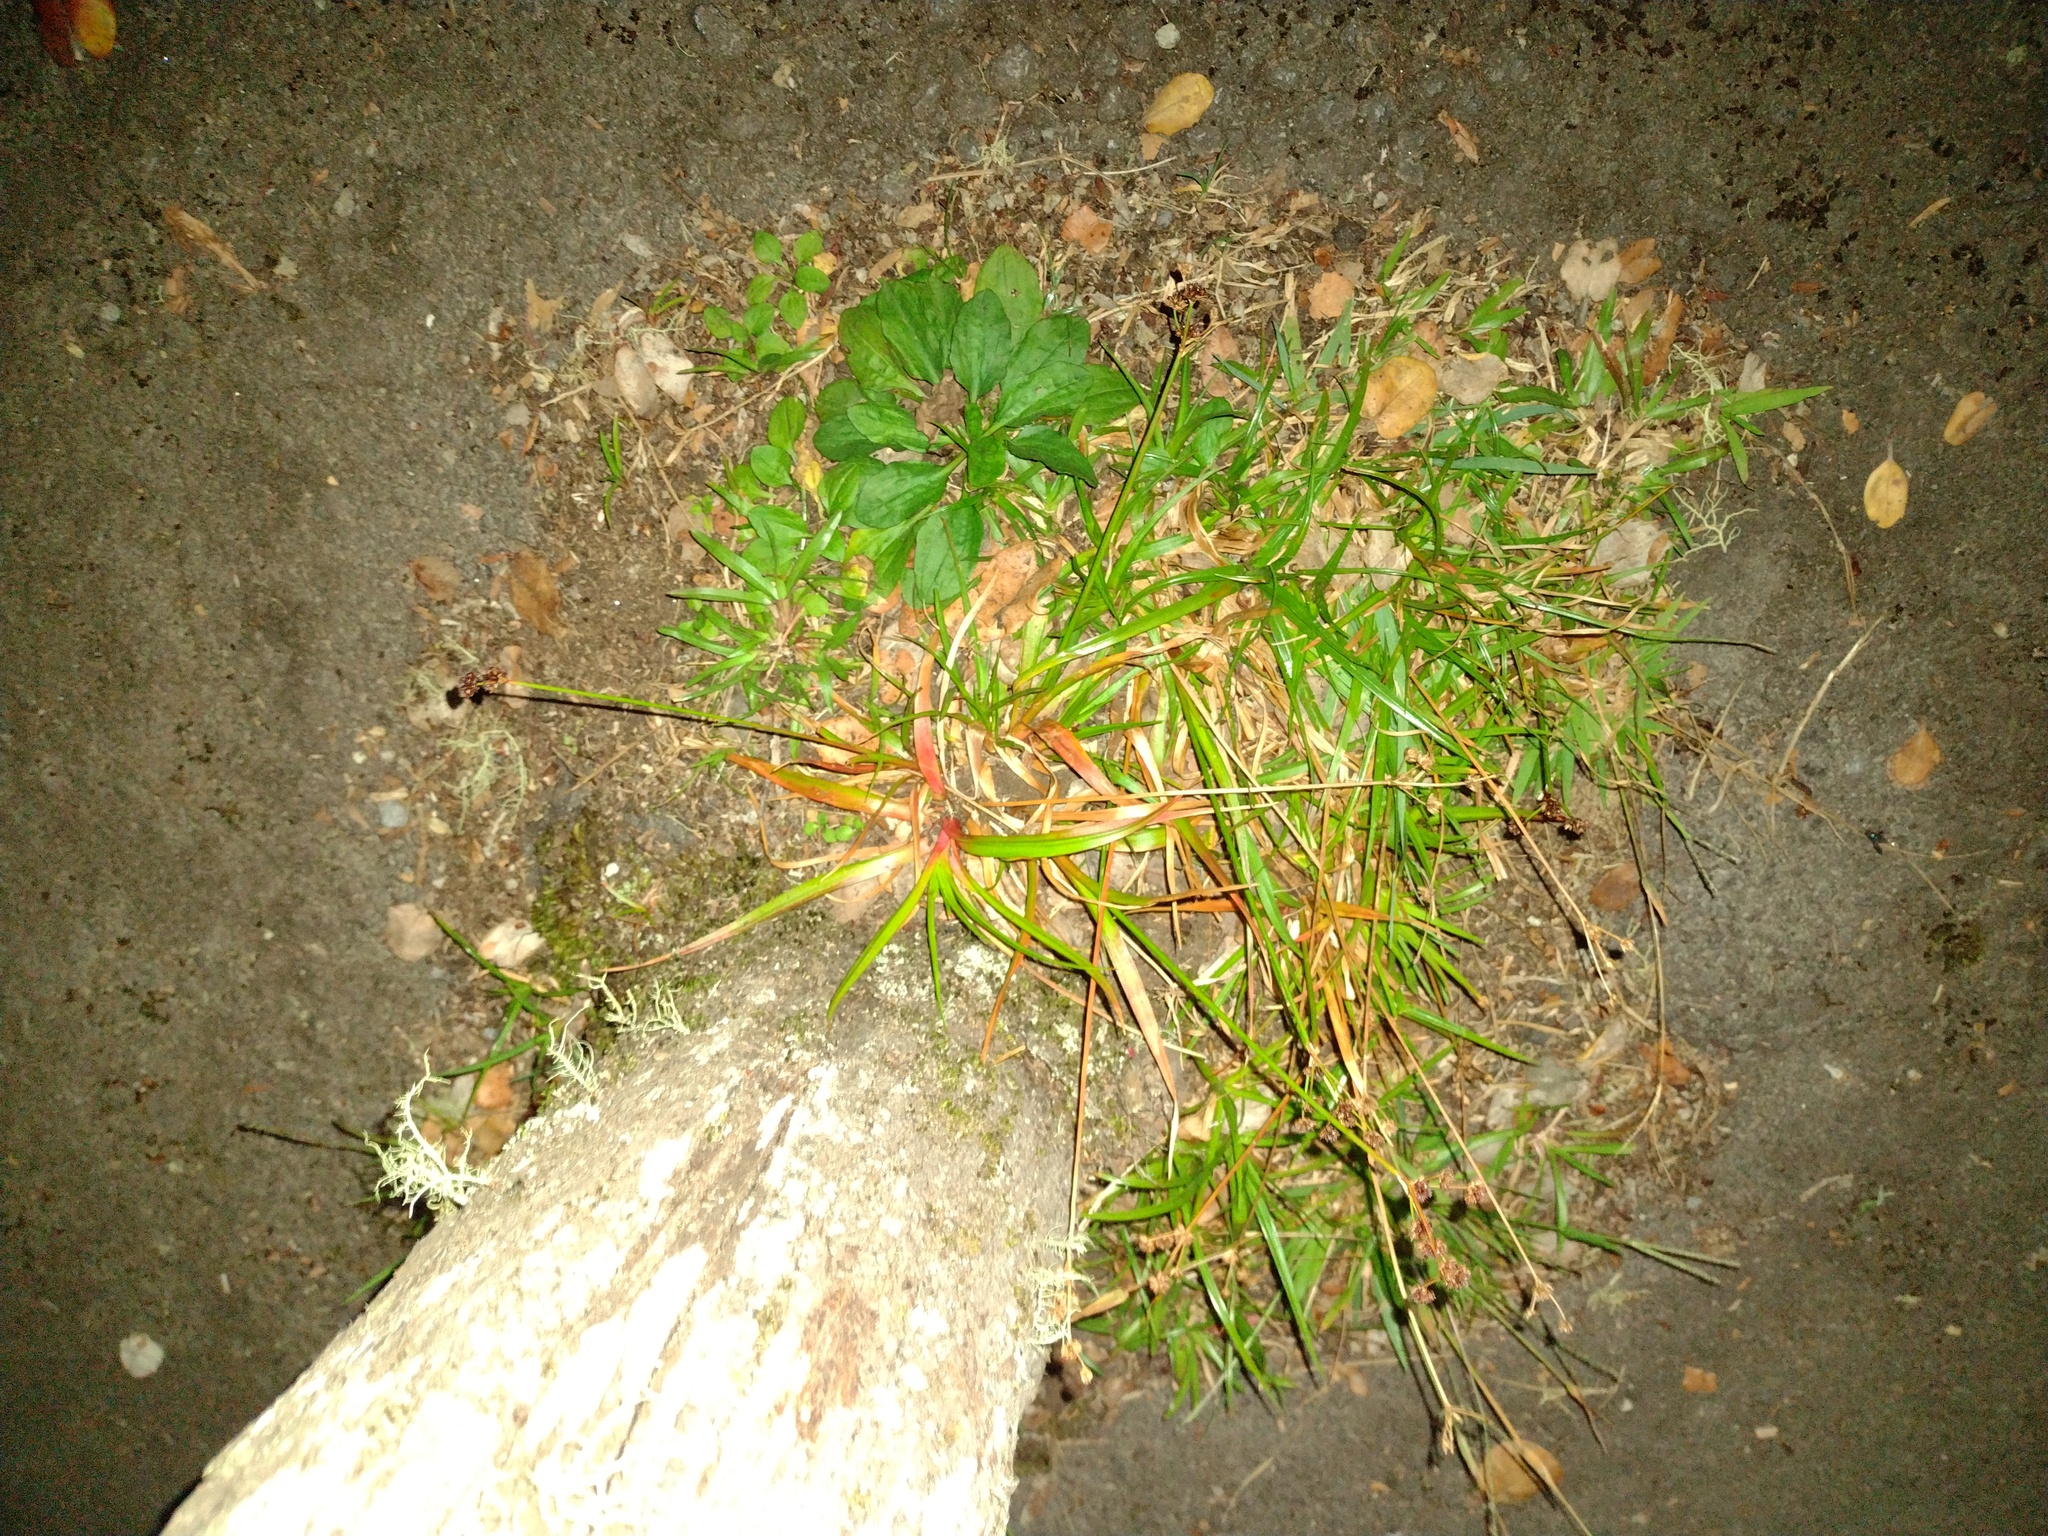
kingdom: Plantae
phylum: Tracheophyta
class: Liliopsida
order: Poales
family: Juncaceae
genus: Juncus
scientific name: Juncus planifolius
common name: Broadleaf rush
